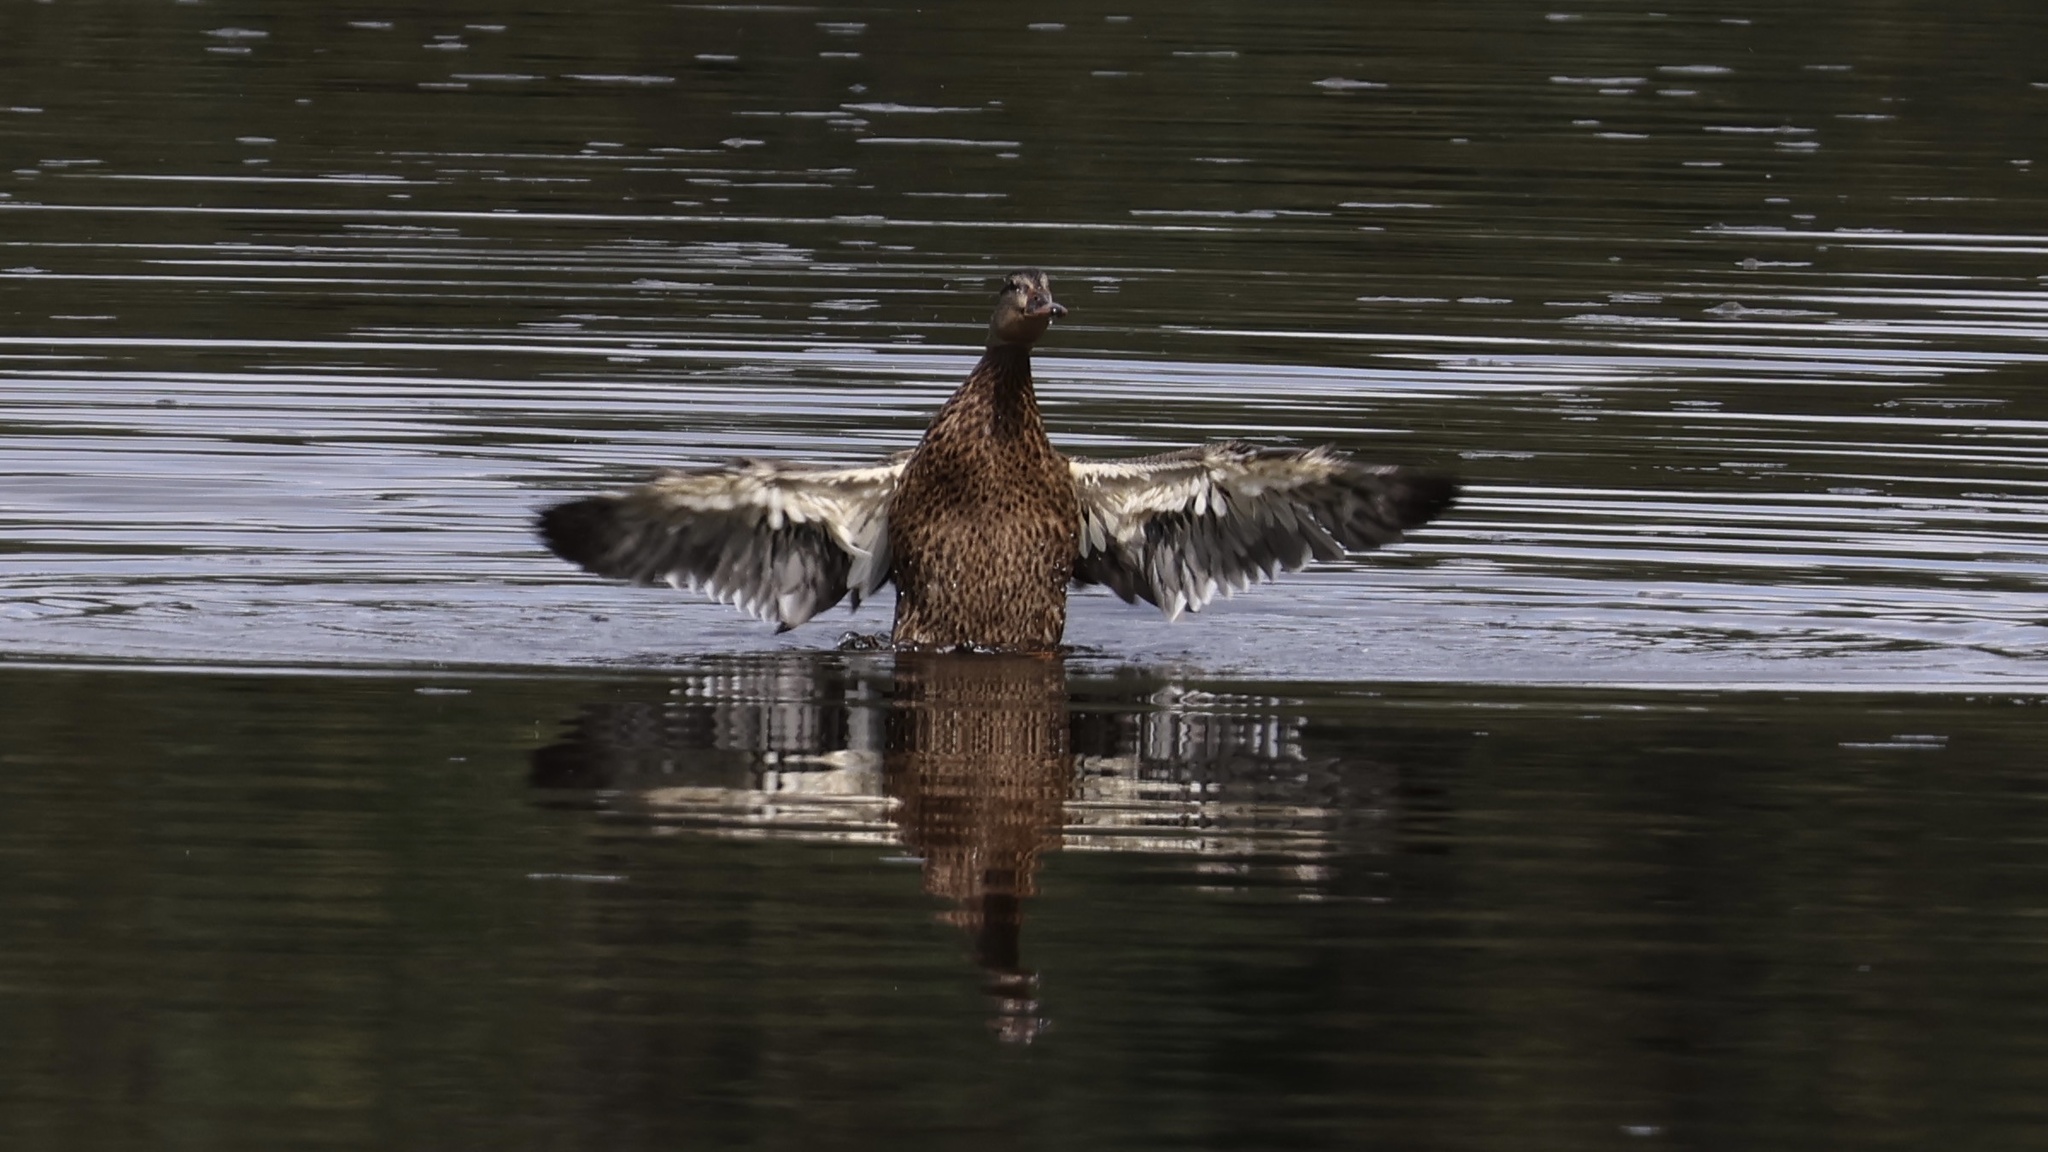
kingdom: Animalia
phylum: Chordata
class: Aves
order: Anseriformes
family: Anatidae
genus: Anas
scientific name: Anas platyrhynchos
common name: Mallard
